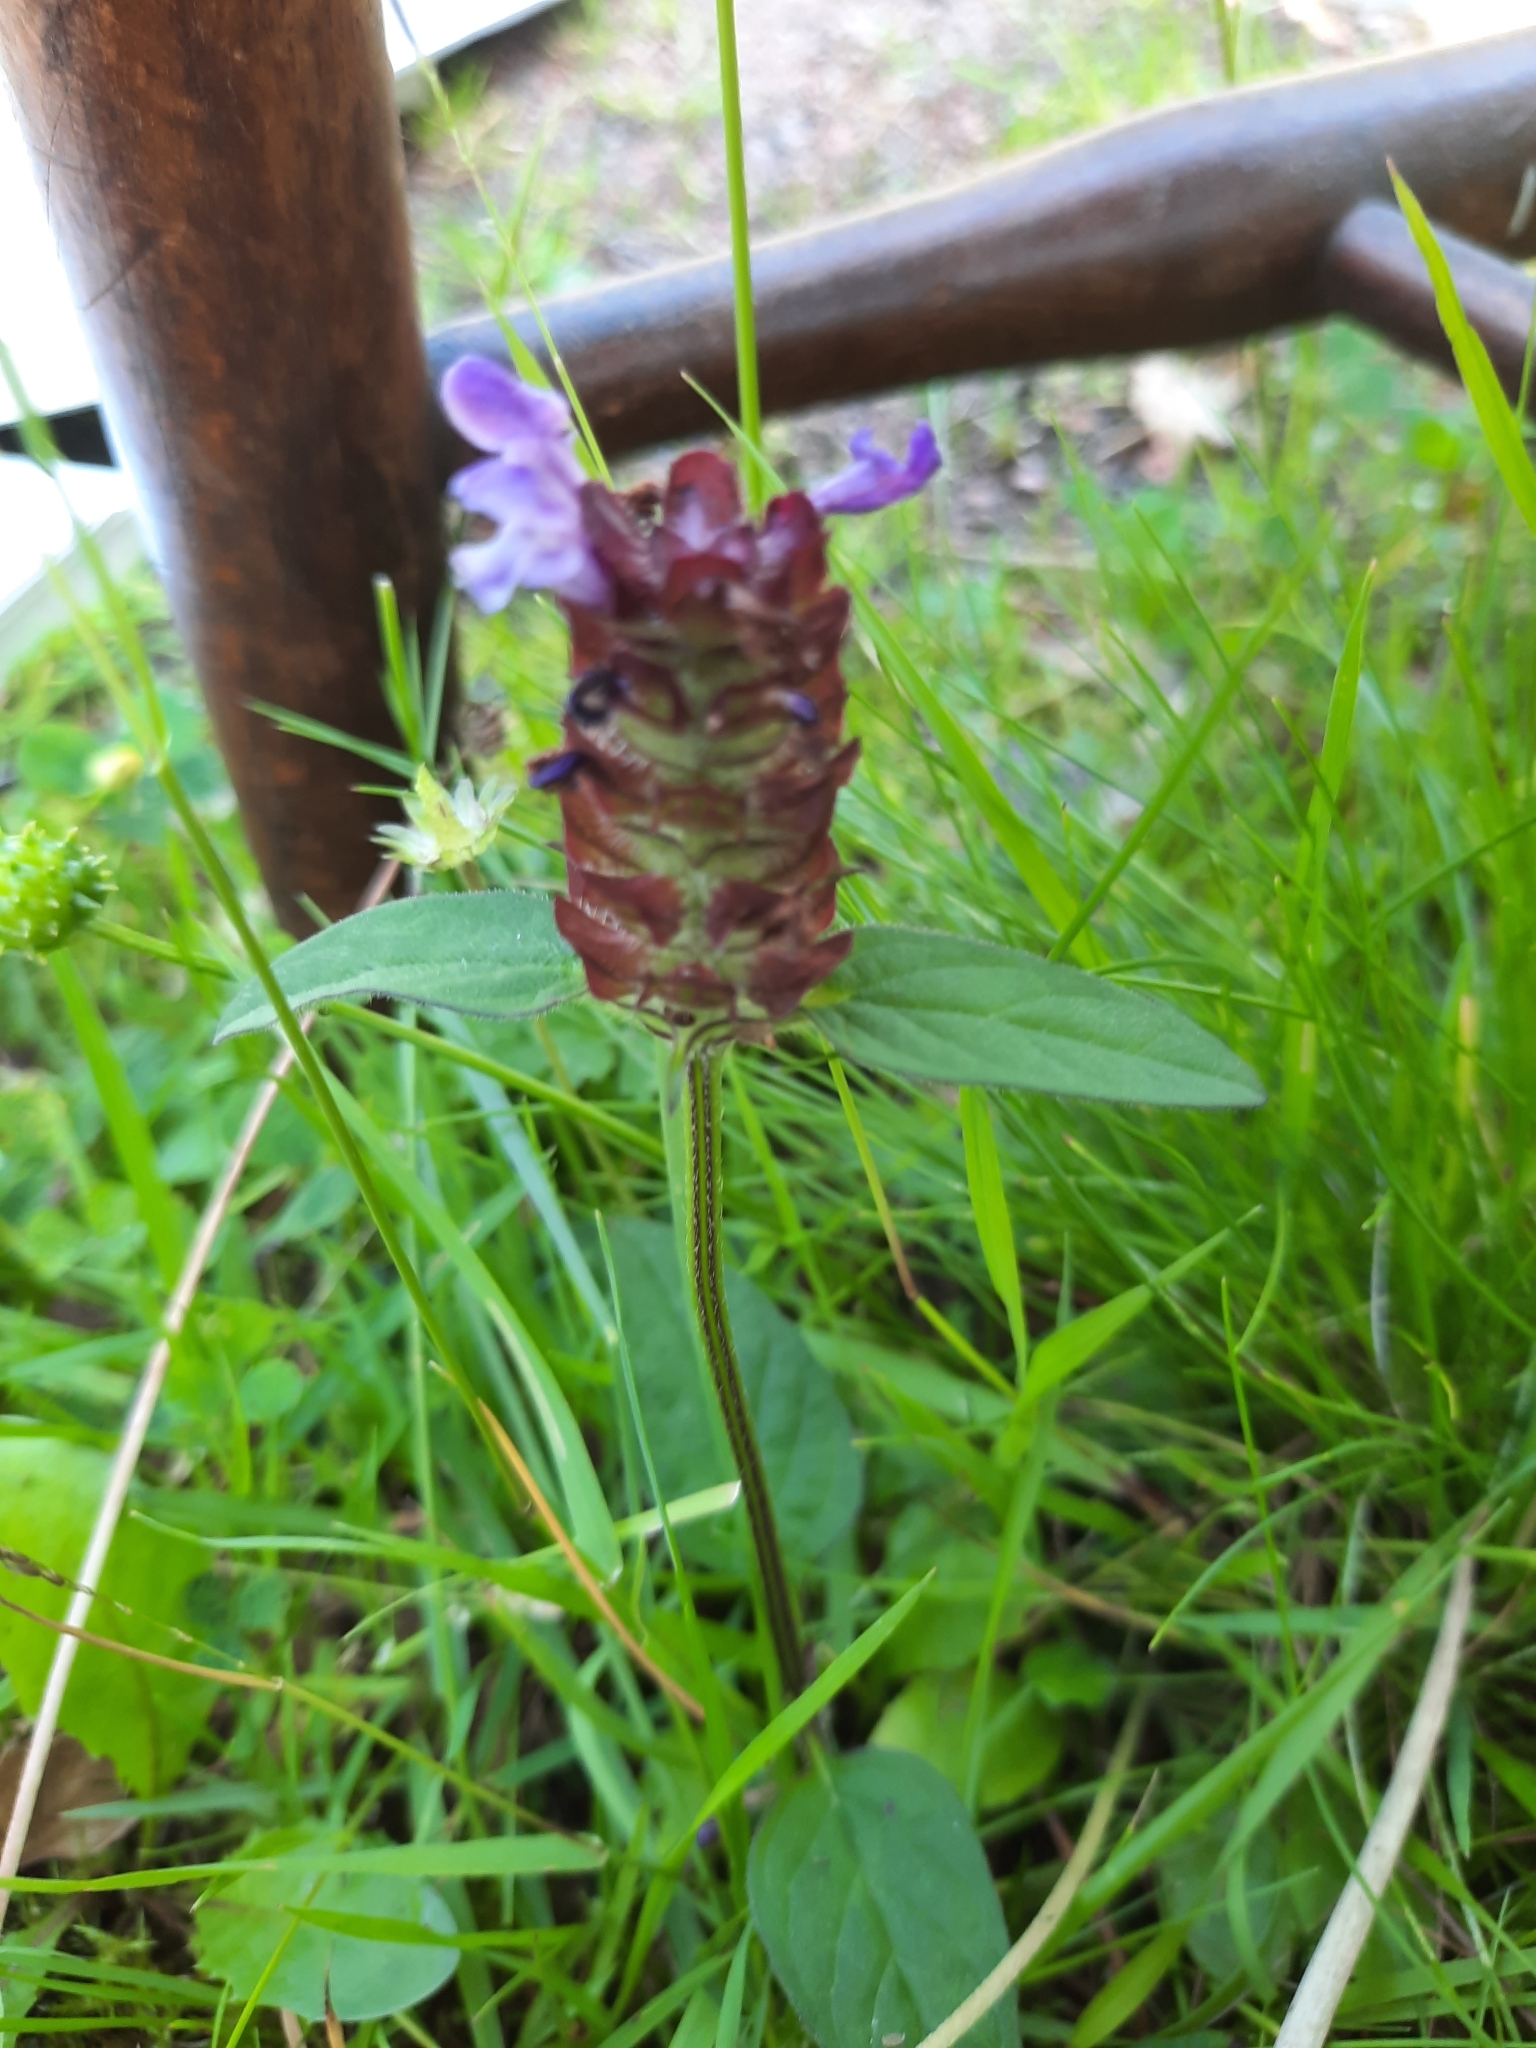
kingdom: Plantae
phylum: Tracheophyta
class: Magnoliopsida
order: Lamiales
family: Lamiaceae
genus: Prunella
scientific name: Prunella vulgaris
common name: Heal-all
